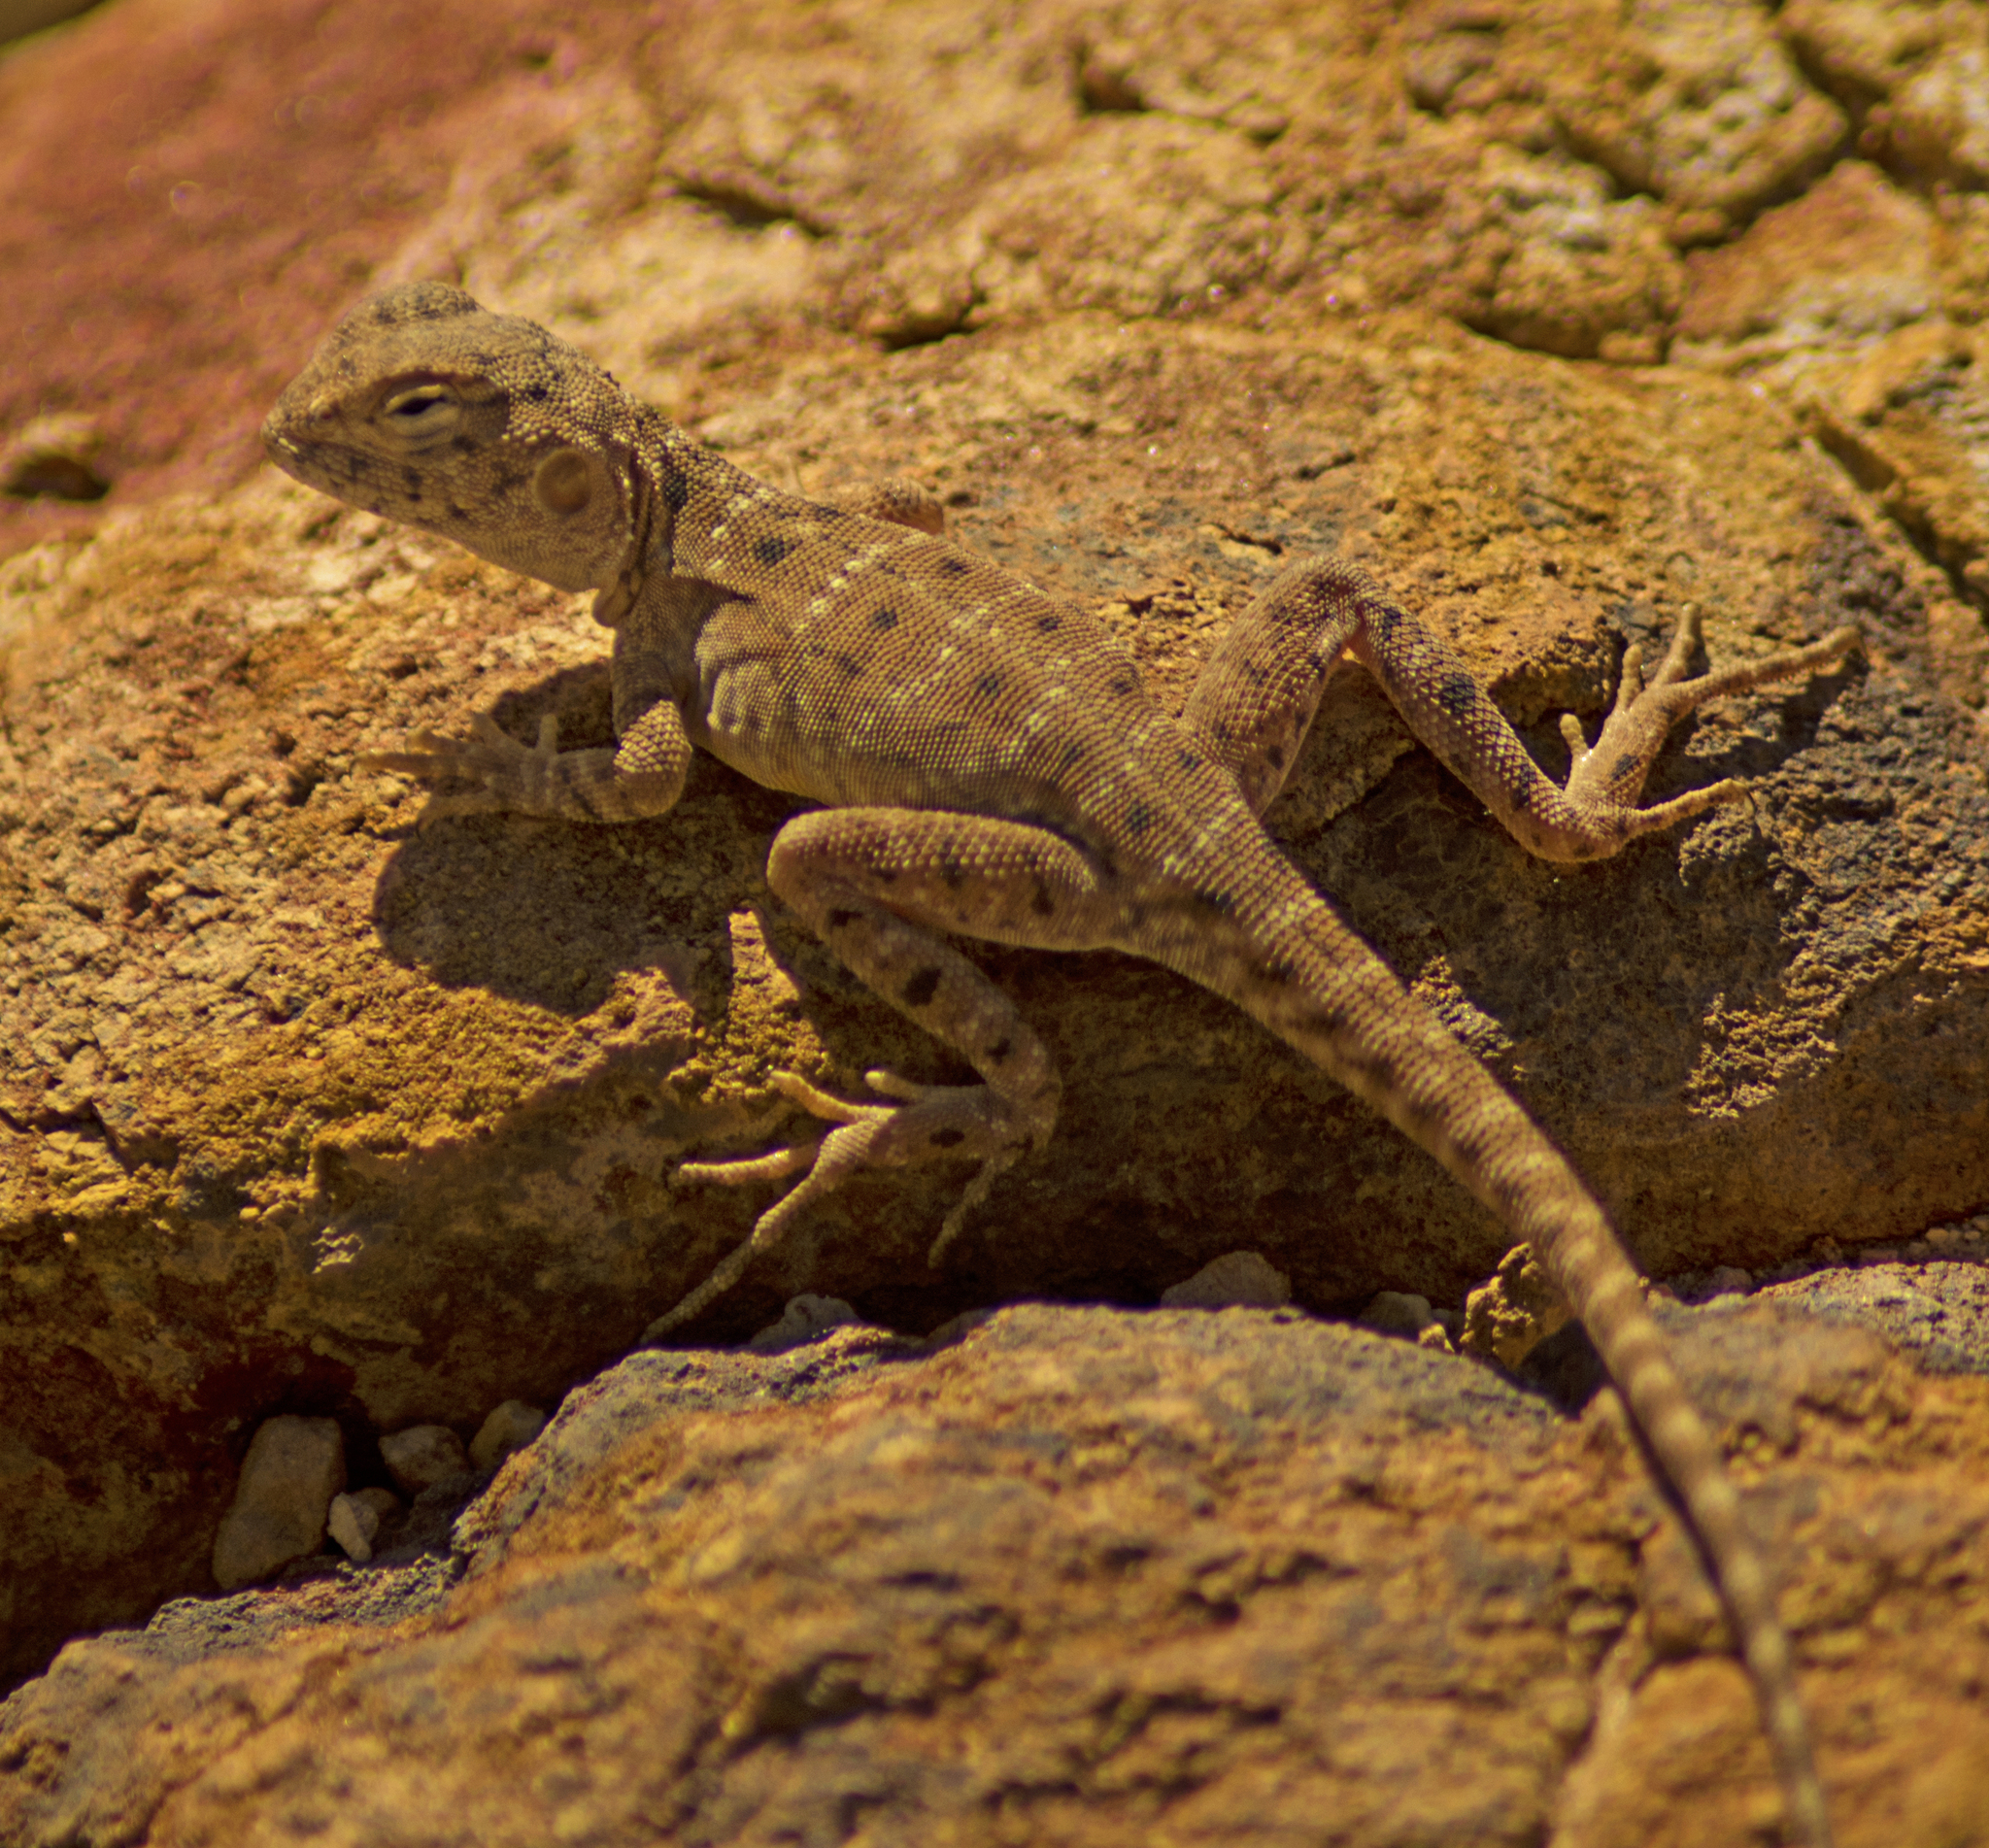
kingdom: Animalia
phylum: Chordata
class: Squamata
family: Agamidae
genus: Ctenophorus
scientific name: Ctenophorus slateri
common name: Slater’s dragon
